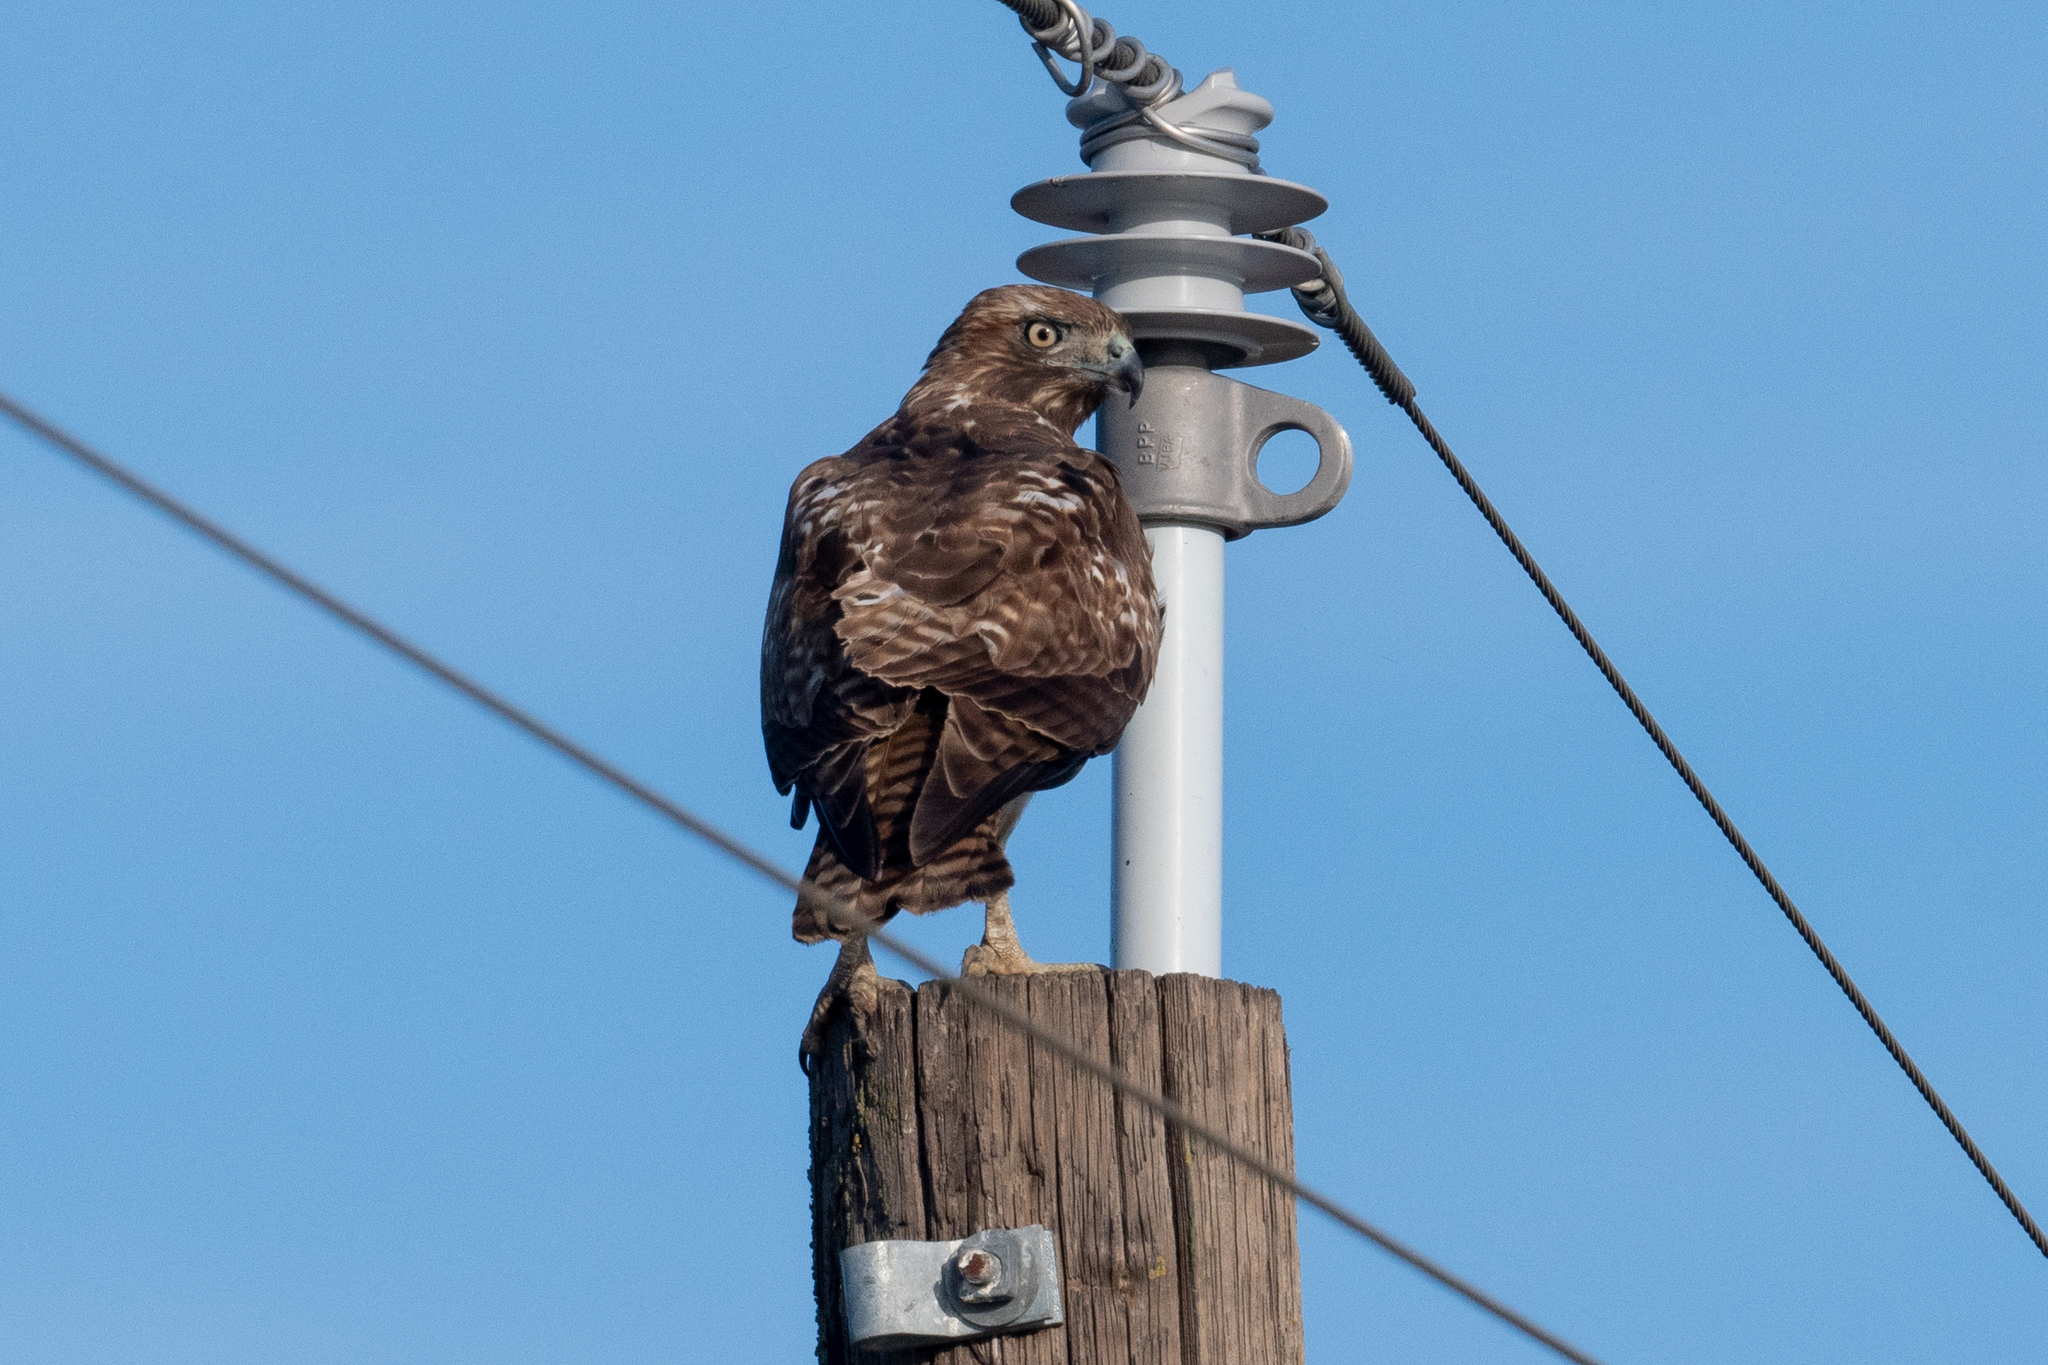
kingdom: Animalia
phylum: Chordata
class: Aves
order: Accipitriformes
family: Accipitridae
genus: Buteo
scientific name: Buteo jamaicensis
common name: Red-tailed hawk
